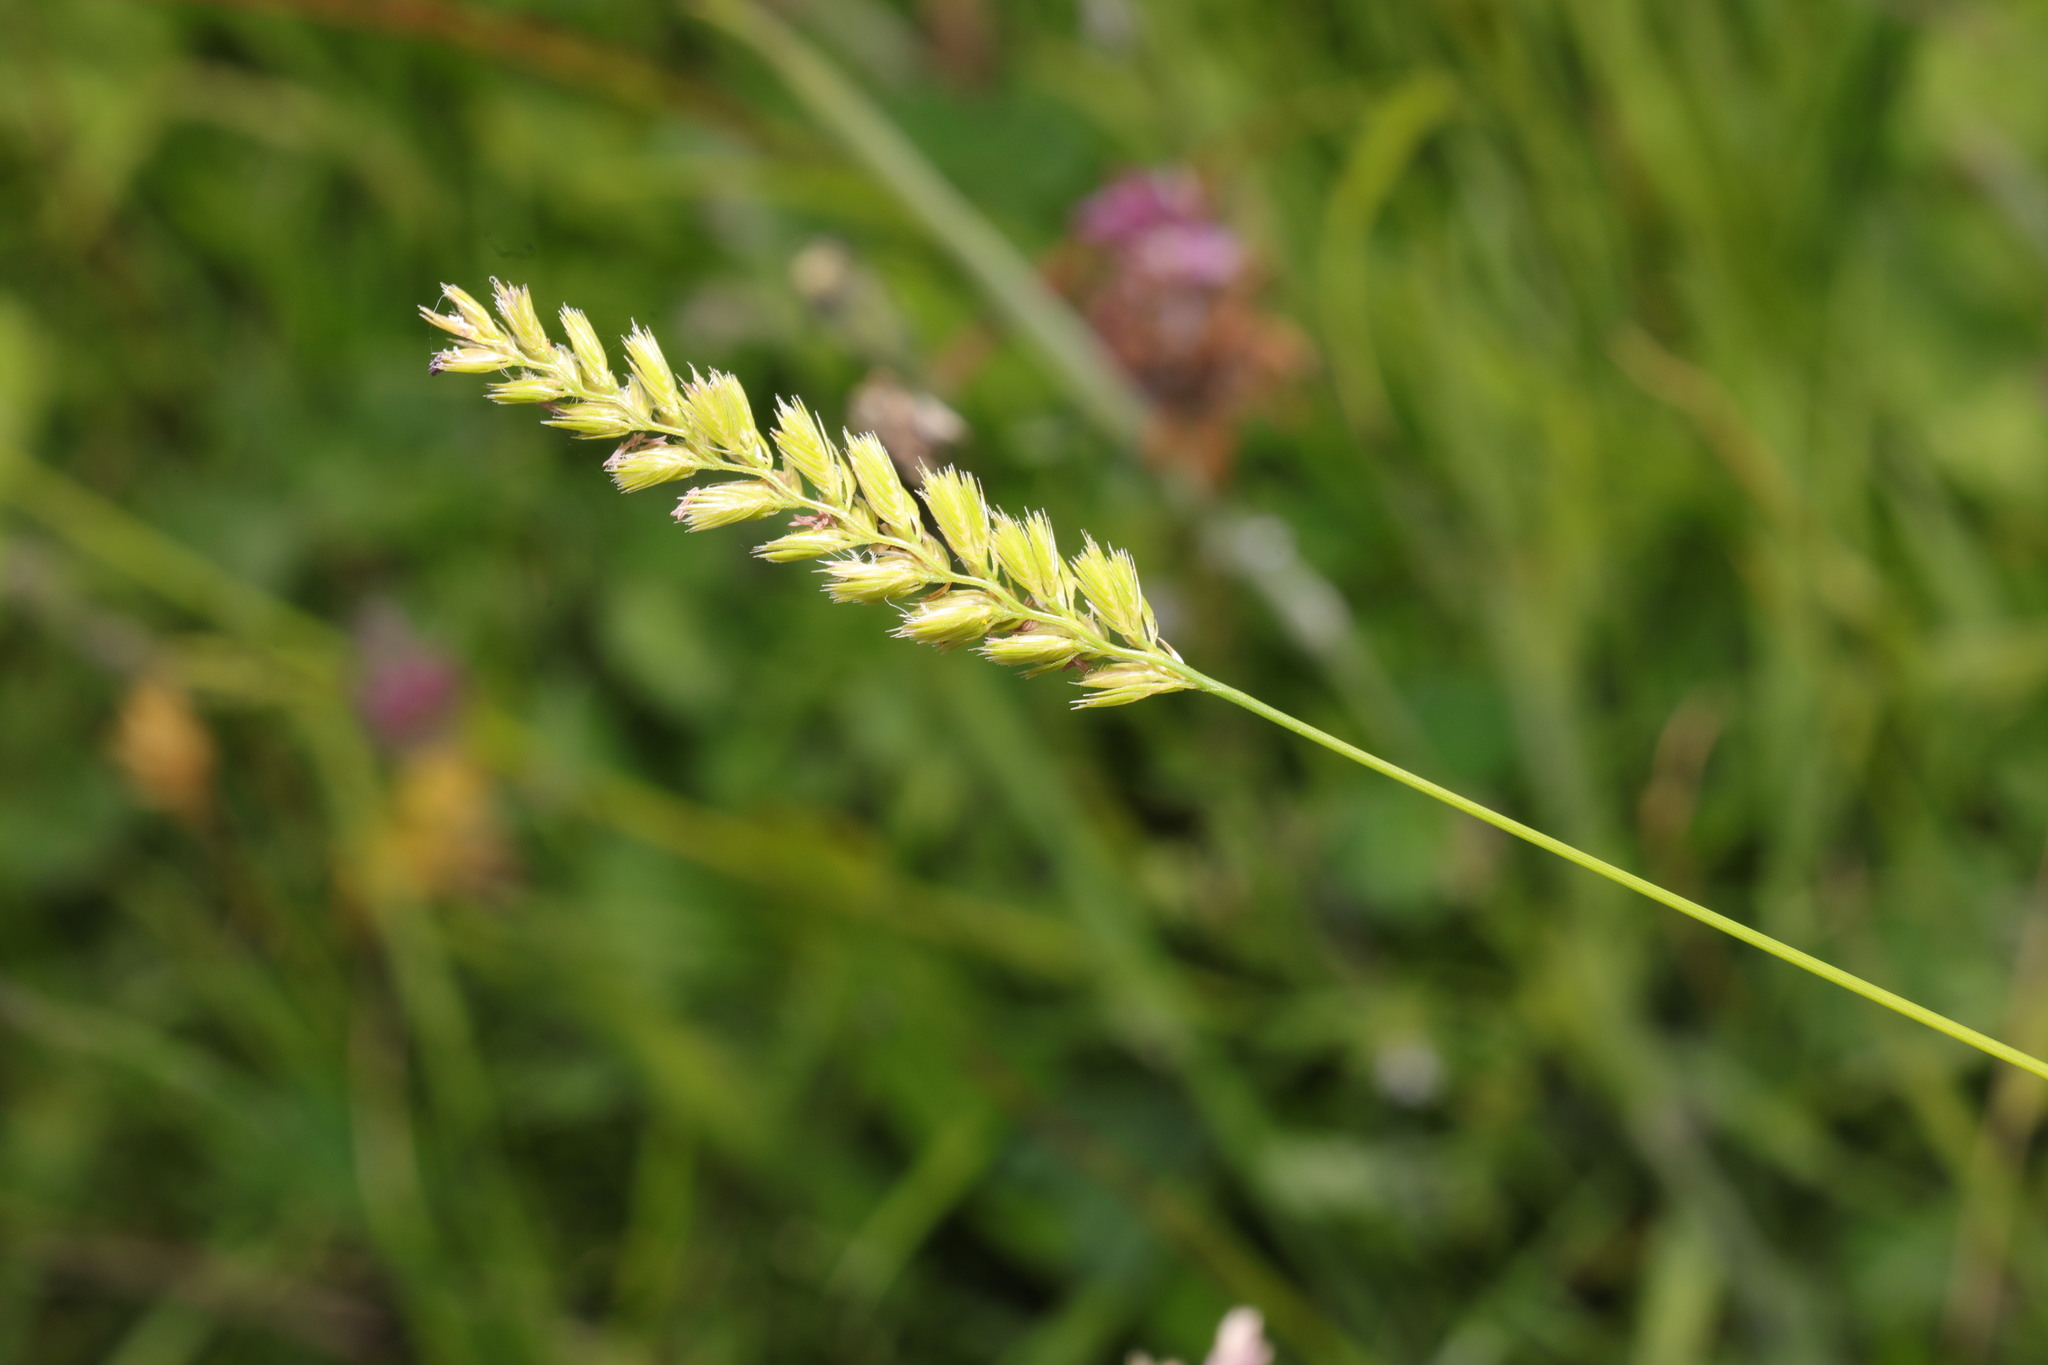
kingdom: Plantae
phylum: Tracheophyta
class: Liliopsida
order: Poales
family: Poaceae
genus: Cynosurus
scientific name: Cynosurus cristatus
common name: Crested dog's-tail
